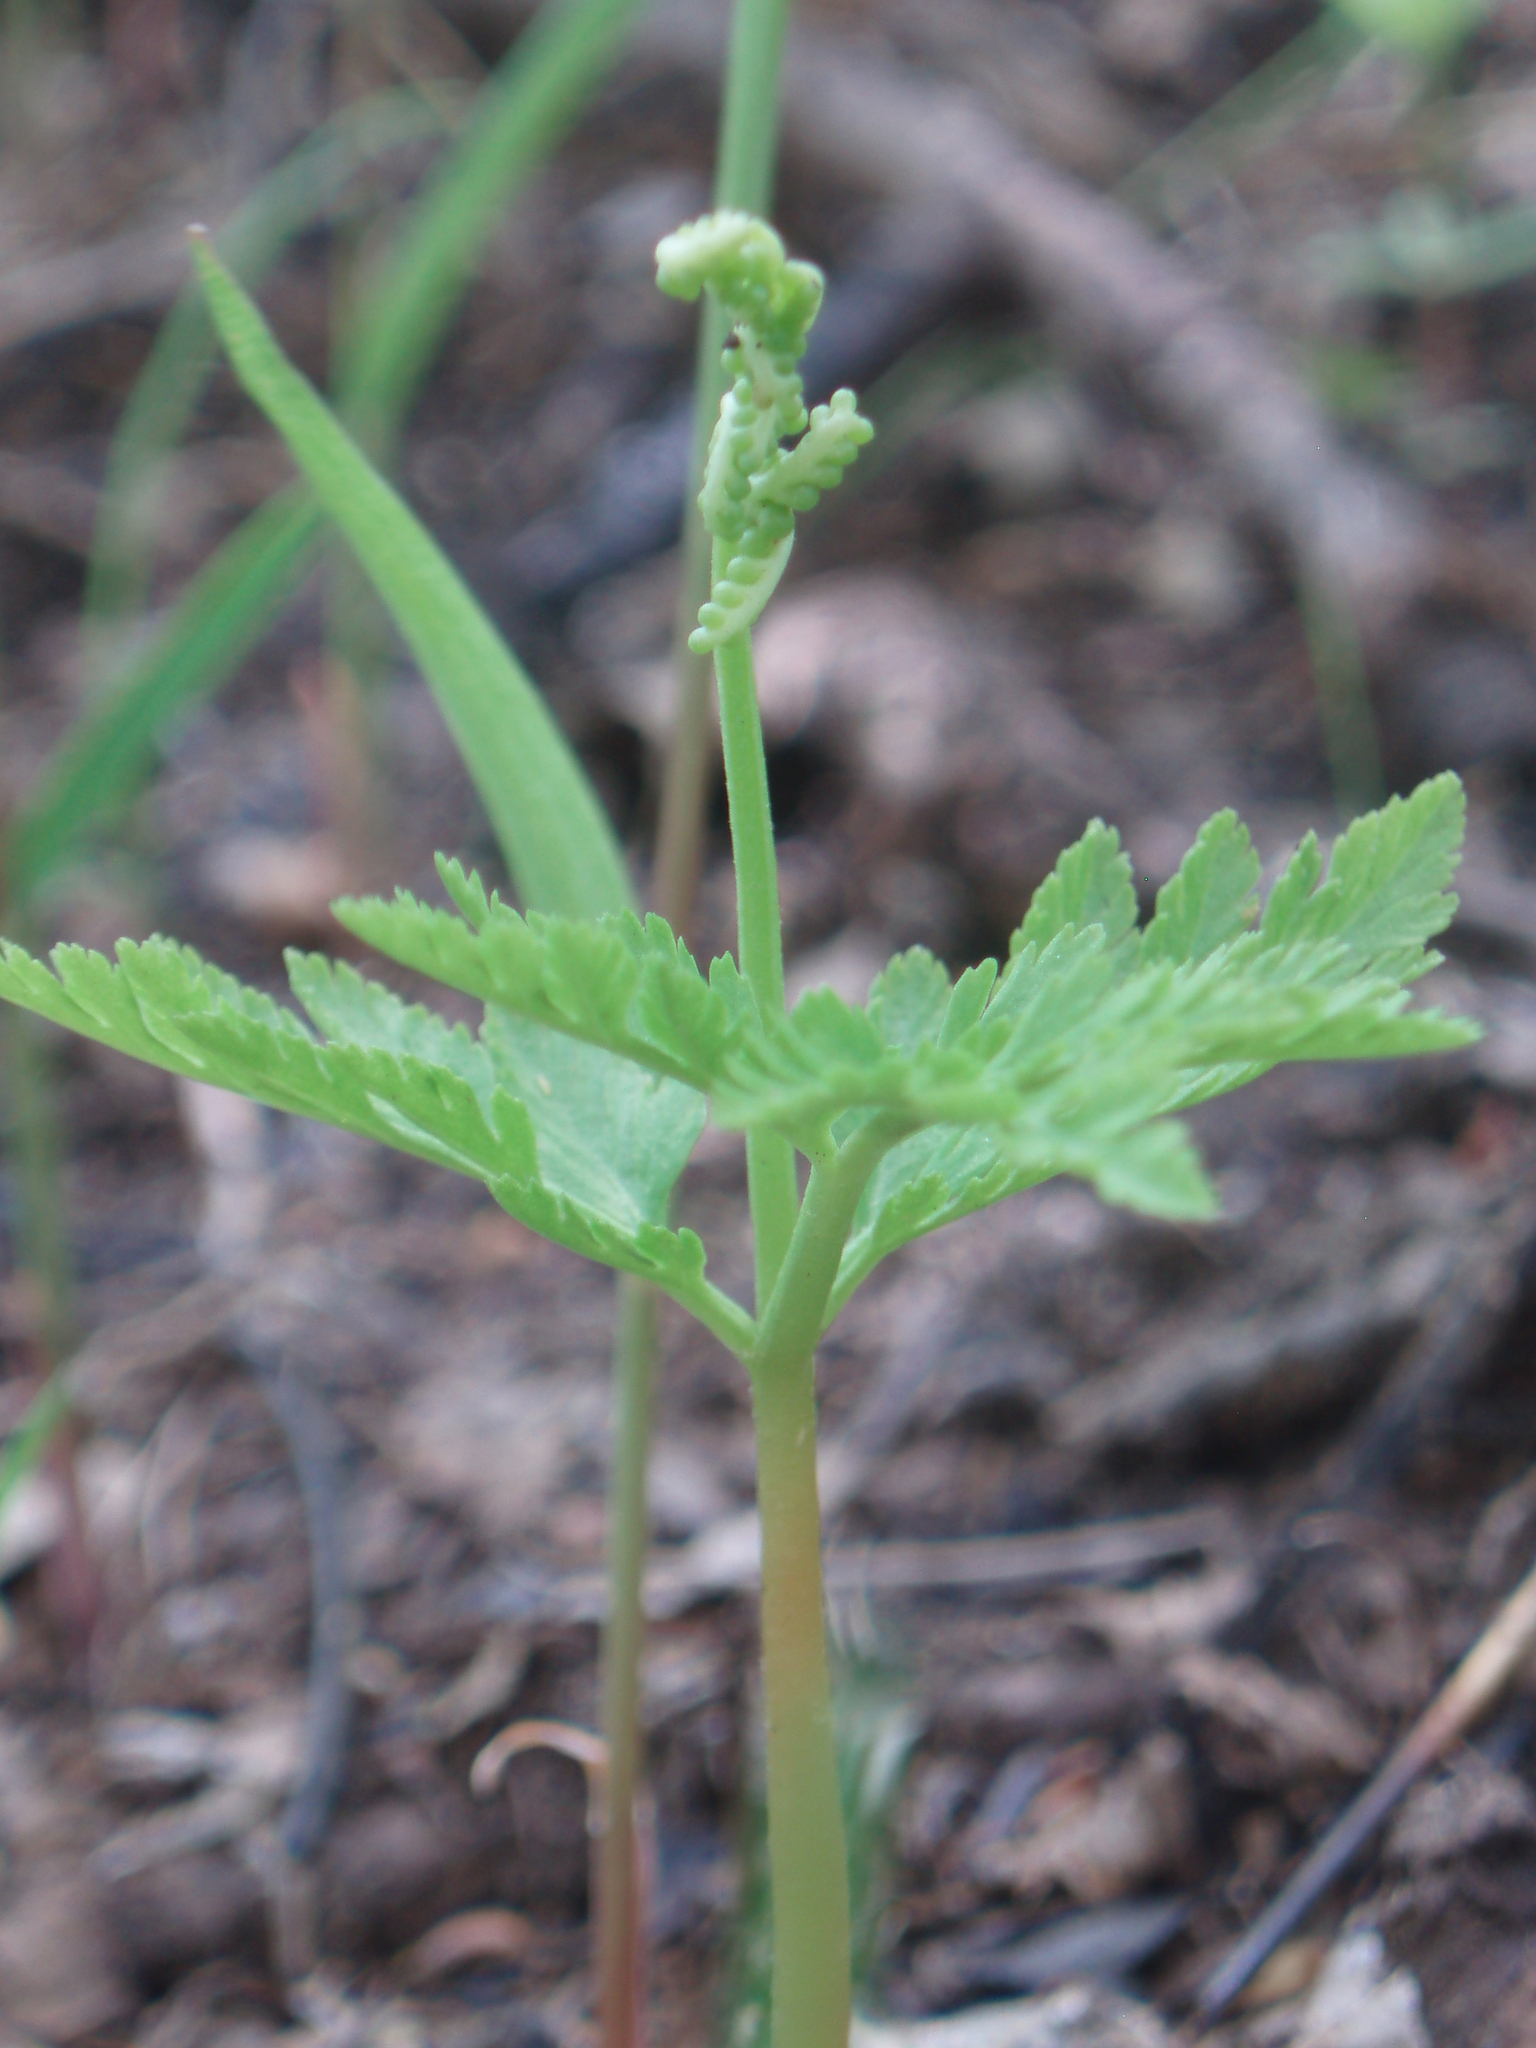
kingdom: Plantae
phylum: Tracheophyta
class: Polypodiopsida
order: Ophioglossales
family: Ophioglossaceae
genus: Botrypus
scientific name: Botrypus virginianus
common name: Common grapefern
